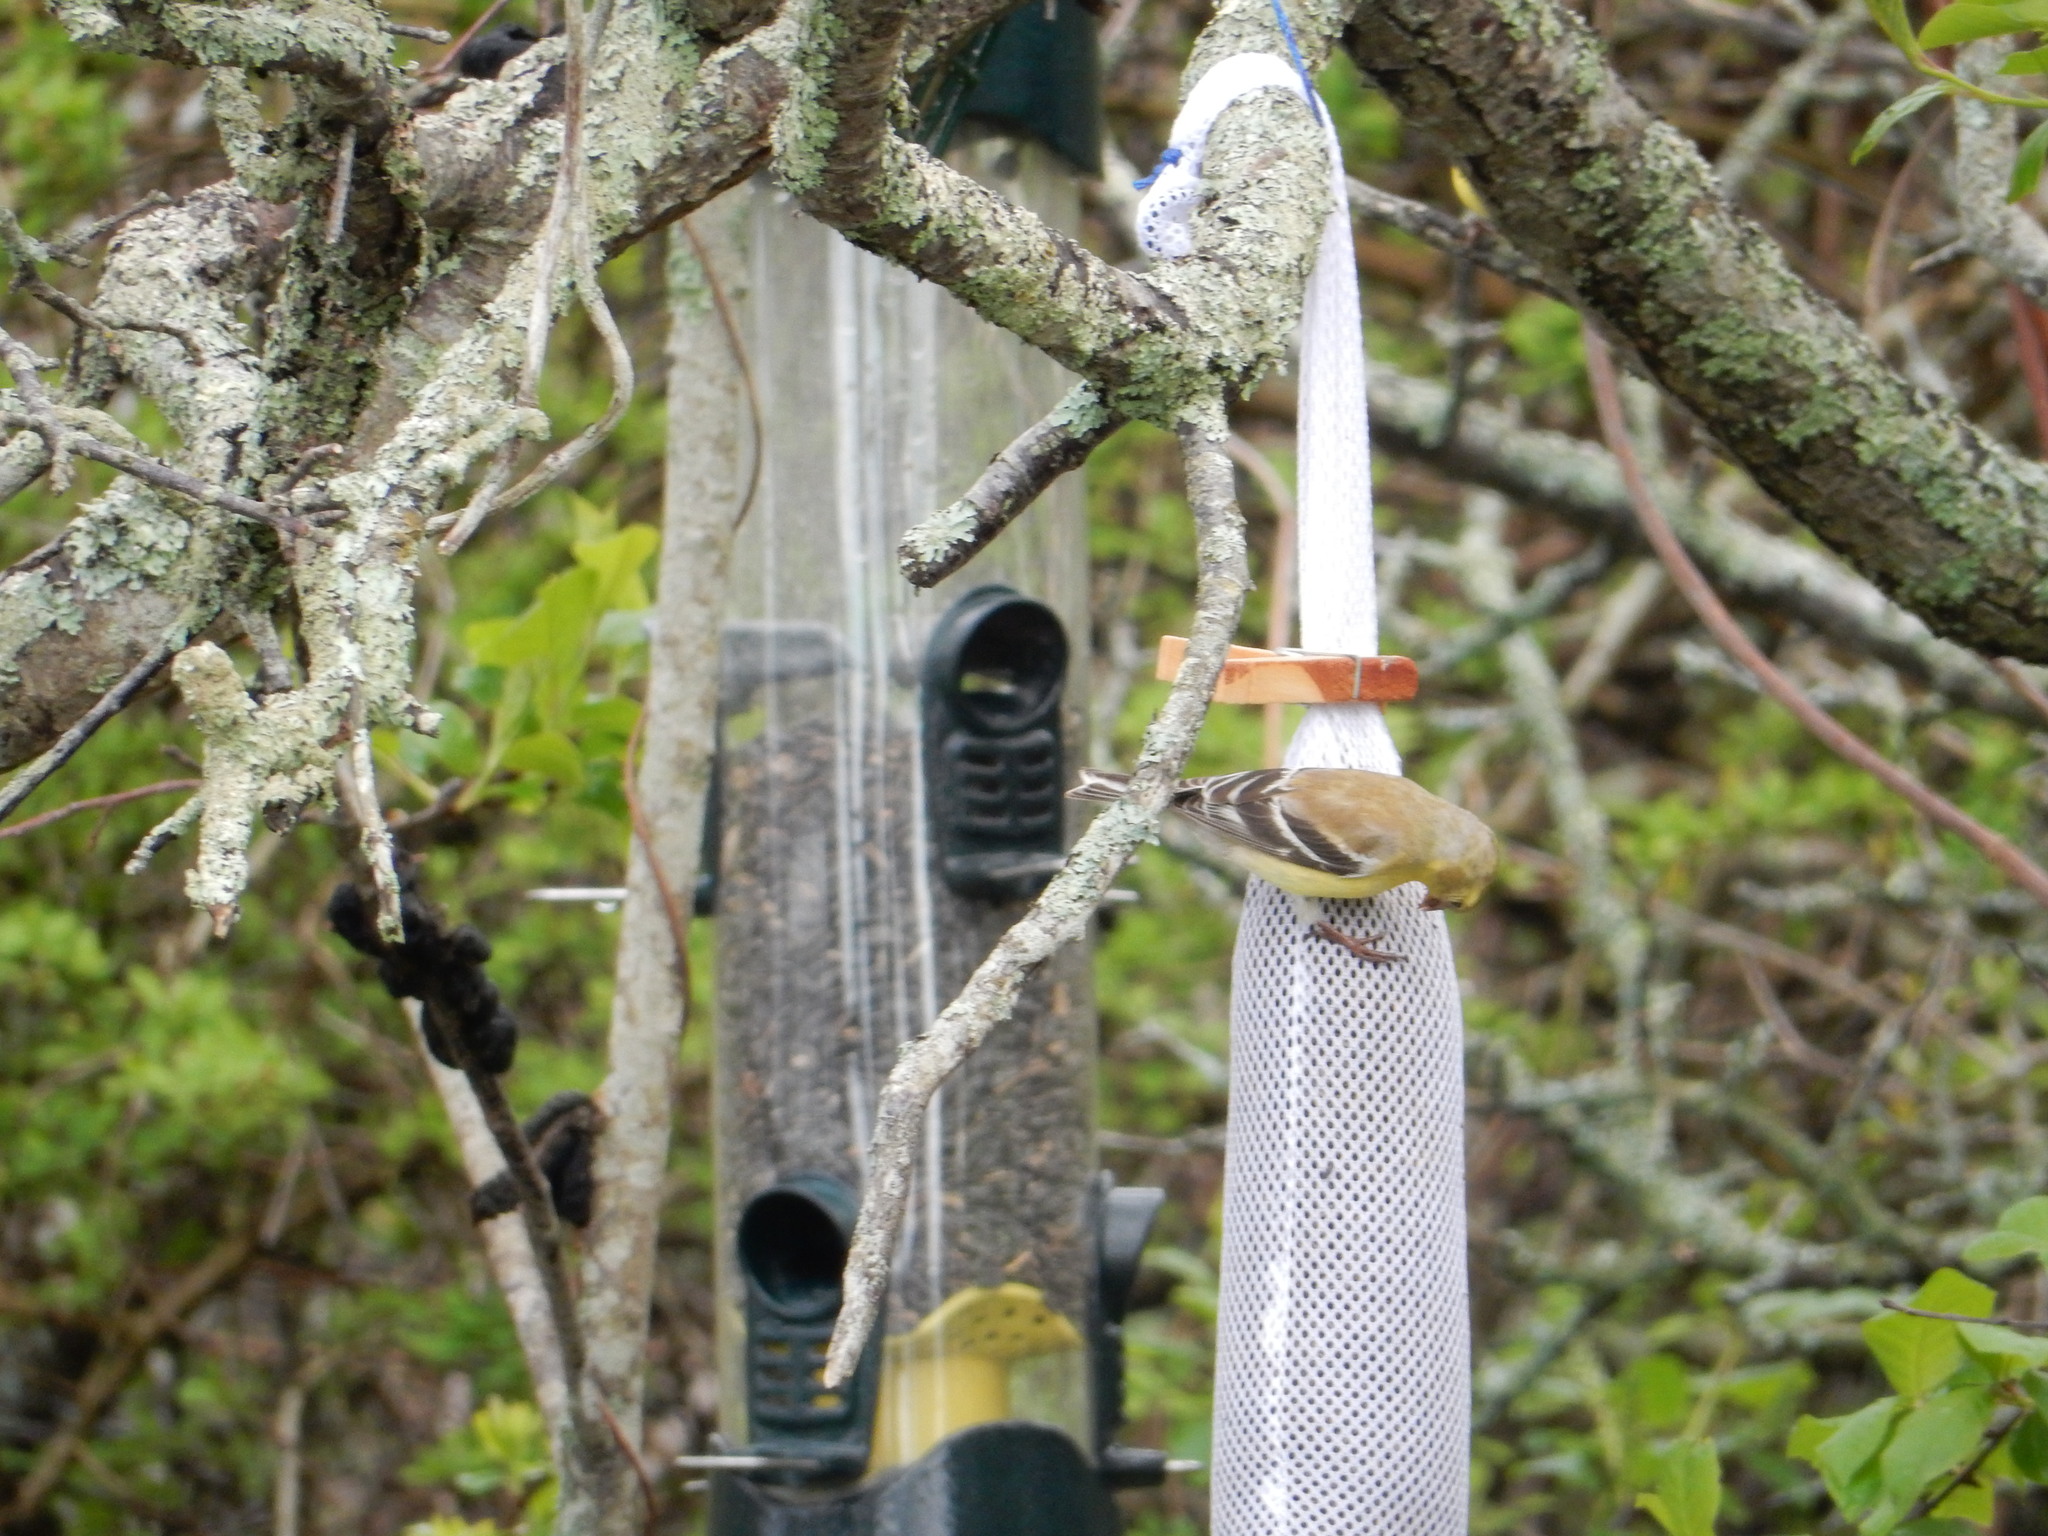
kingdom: Animalia
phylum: Chordata
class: Aves
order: Passeriformes
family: Fringillidae
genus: Spinus
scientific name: Spinus tristis
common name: American goldfinch
